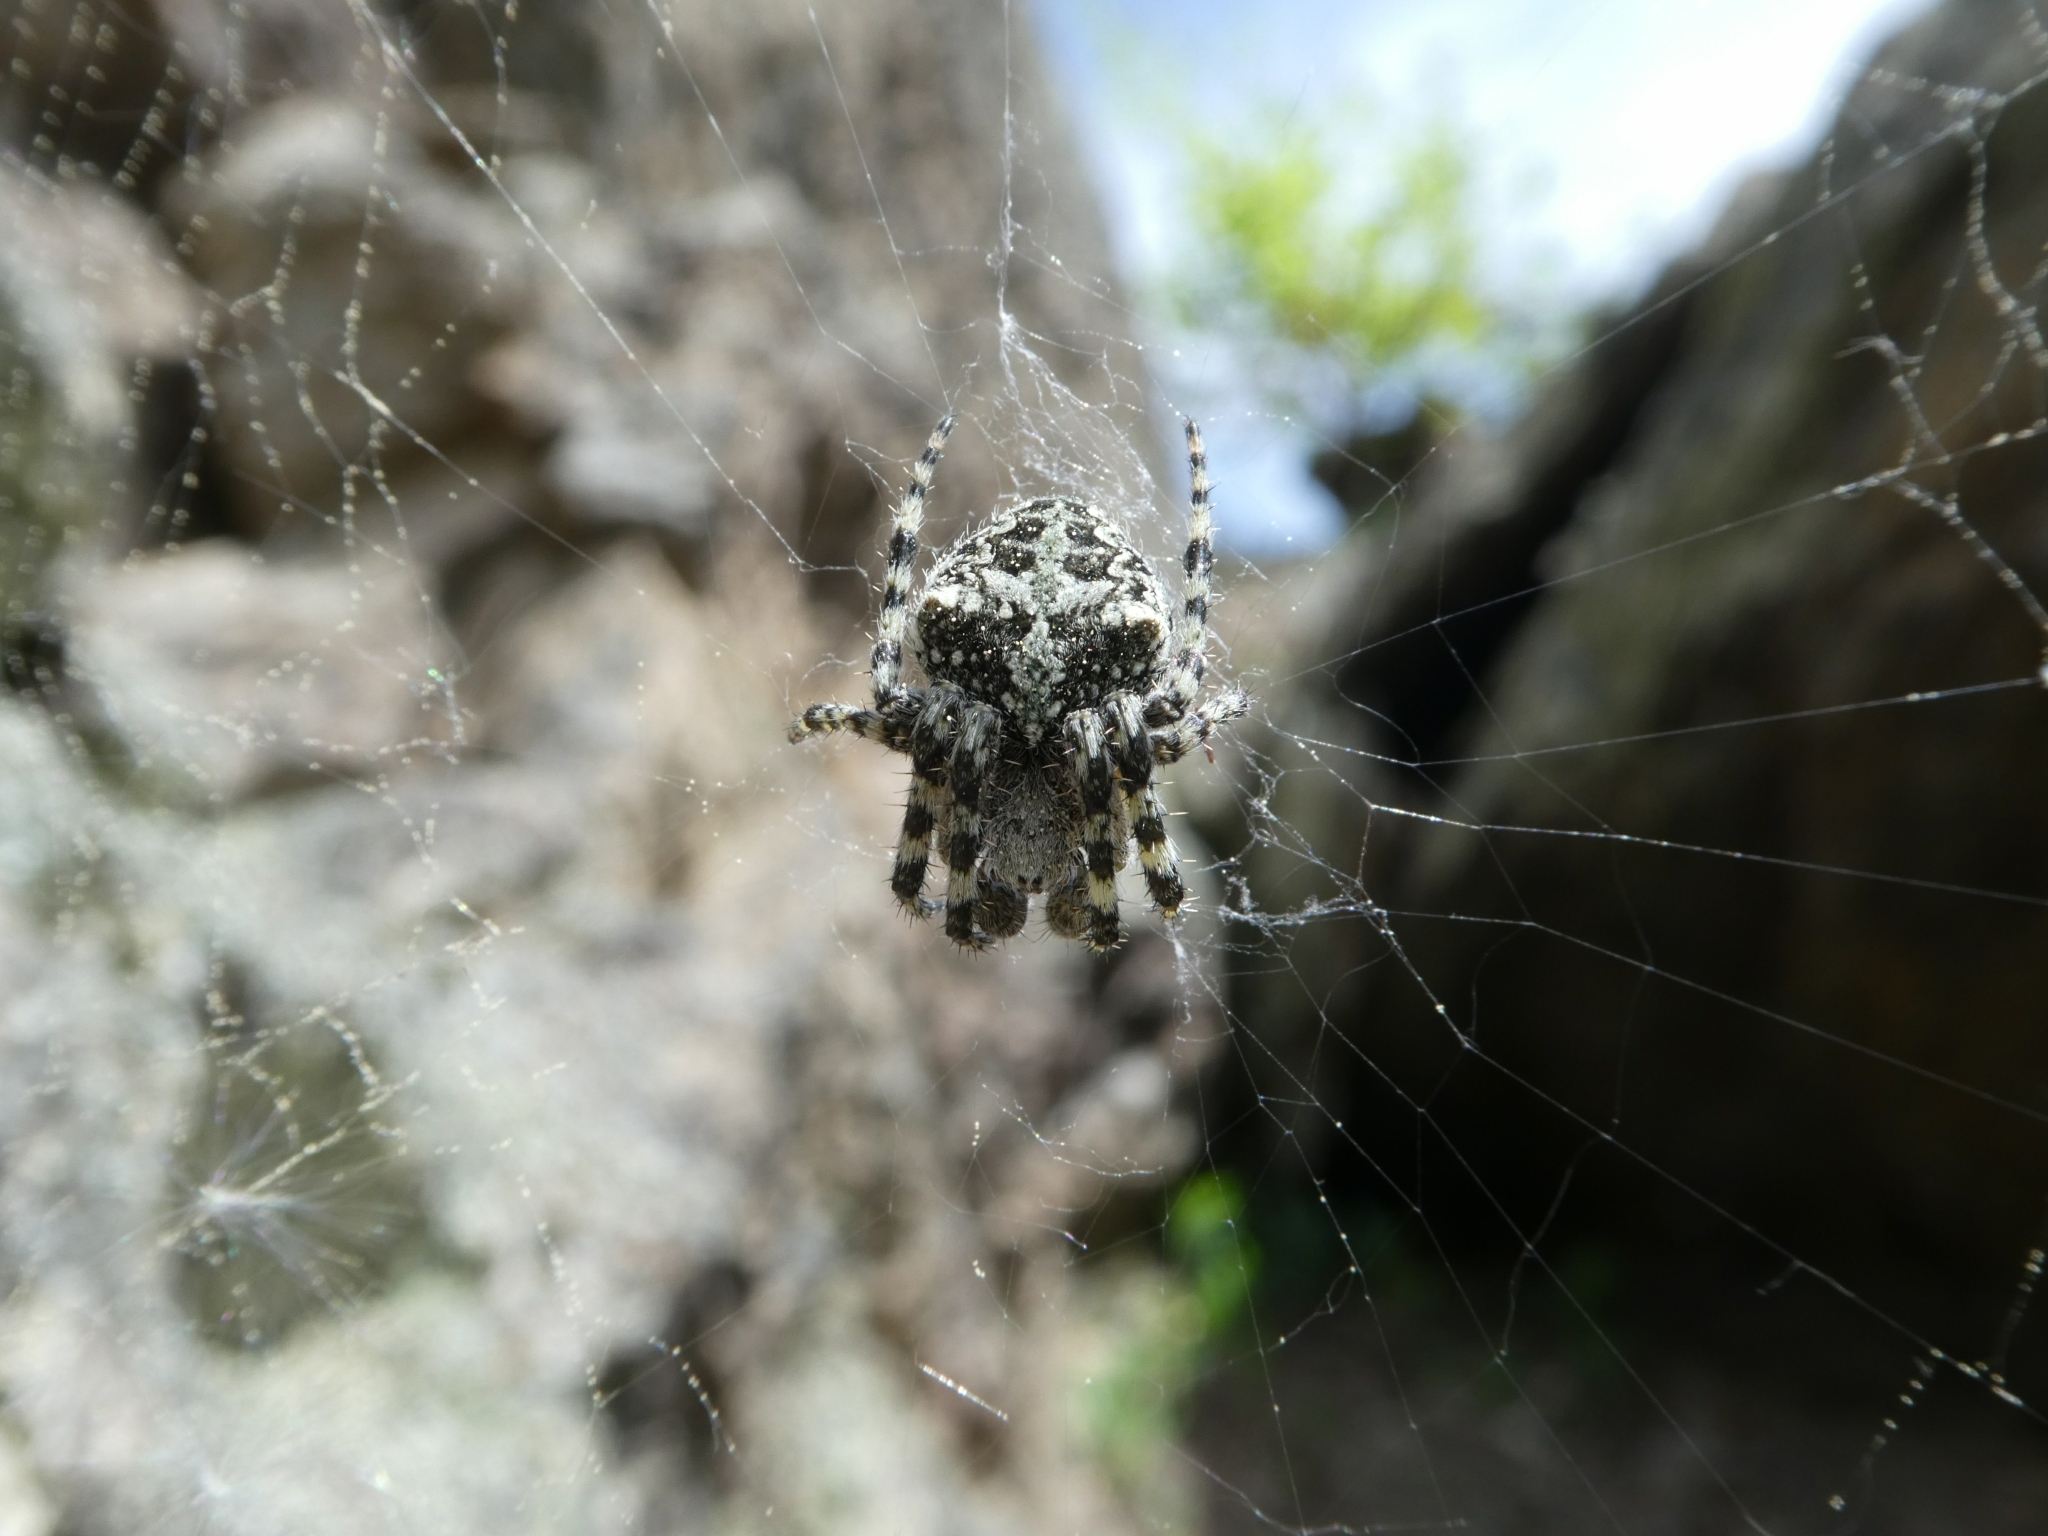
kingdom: Animalia
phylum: Arthropoda
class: Arachnida
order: Araneae
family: Araneidae
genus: Araneus
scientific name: Araneus circe
